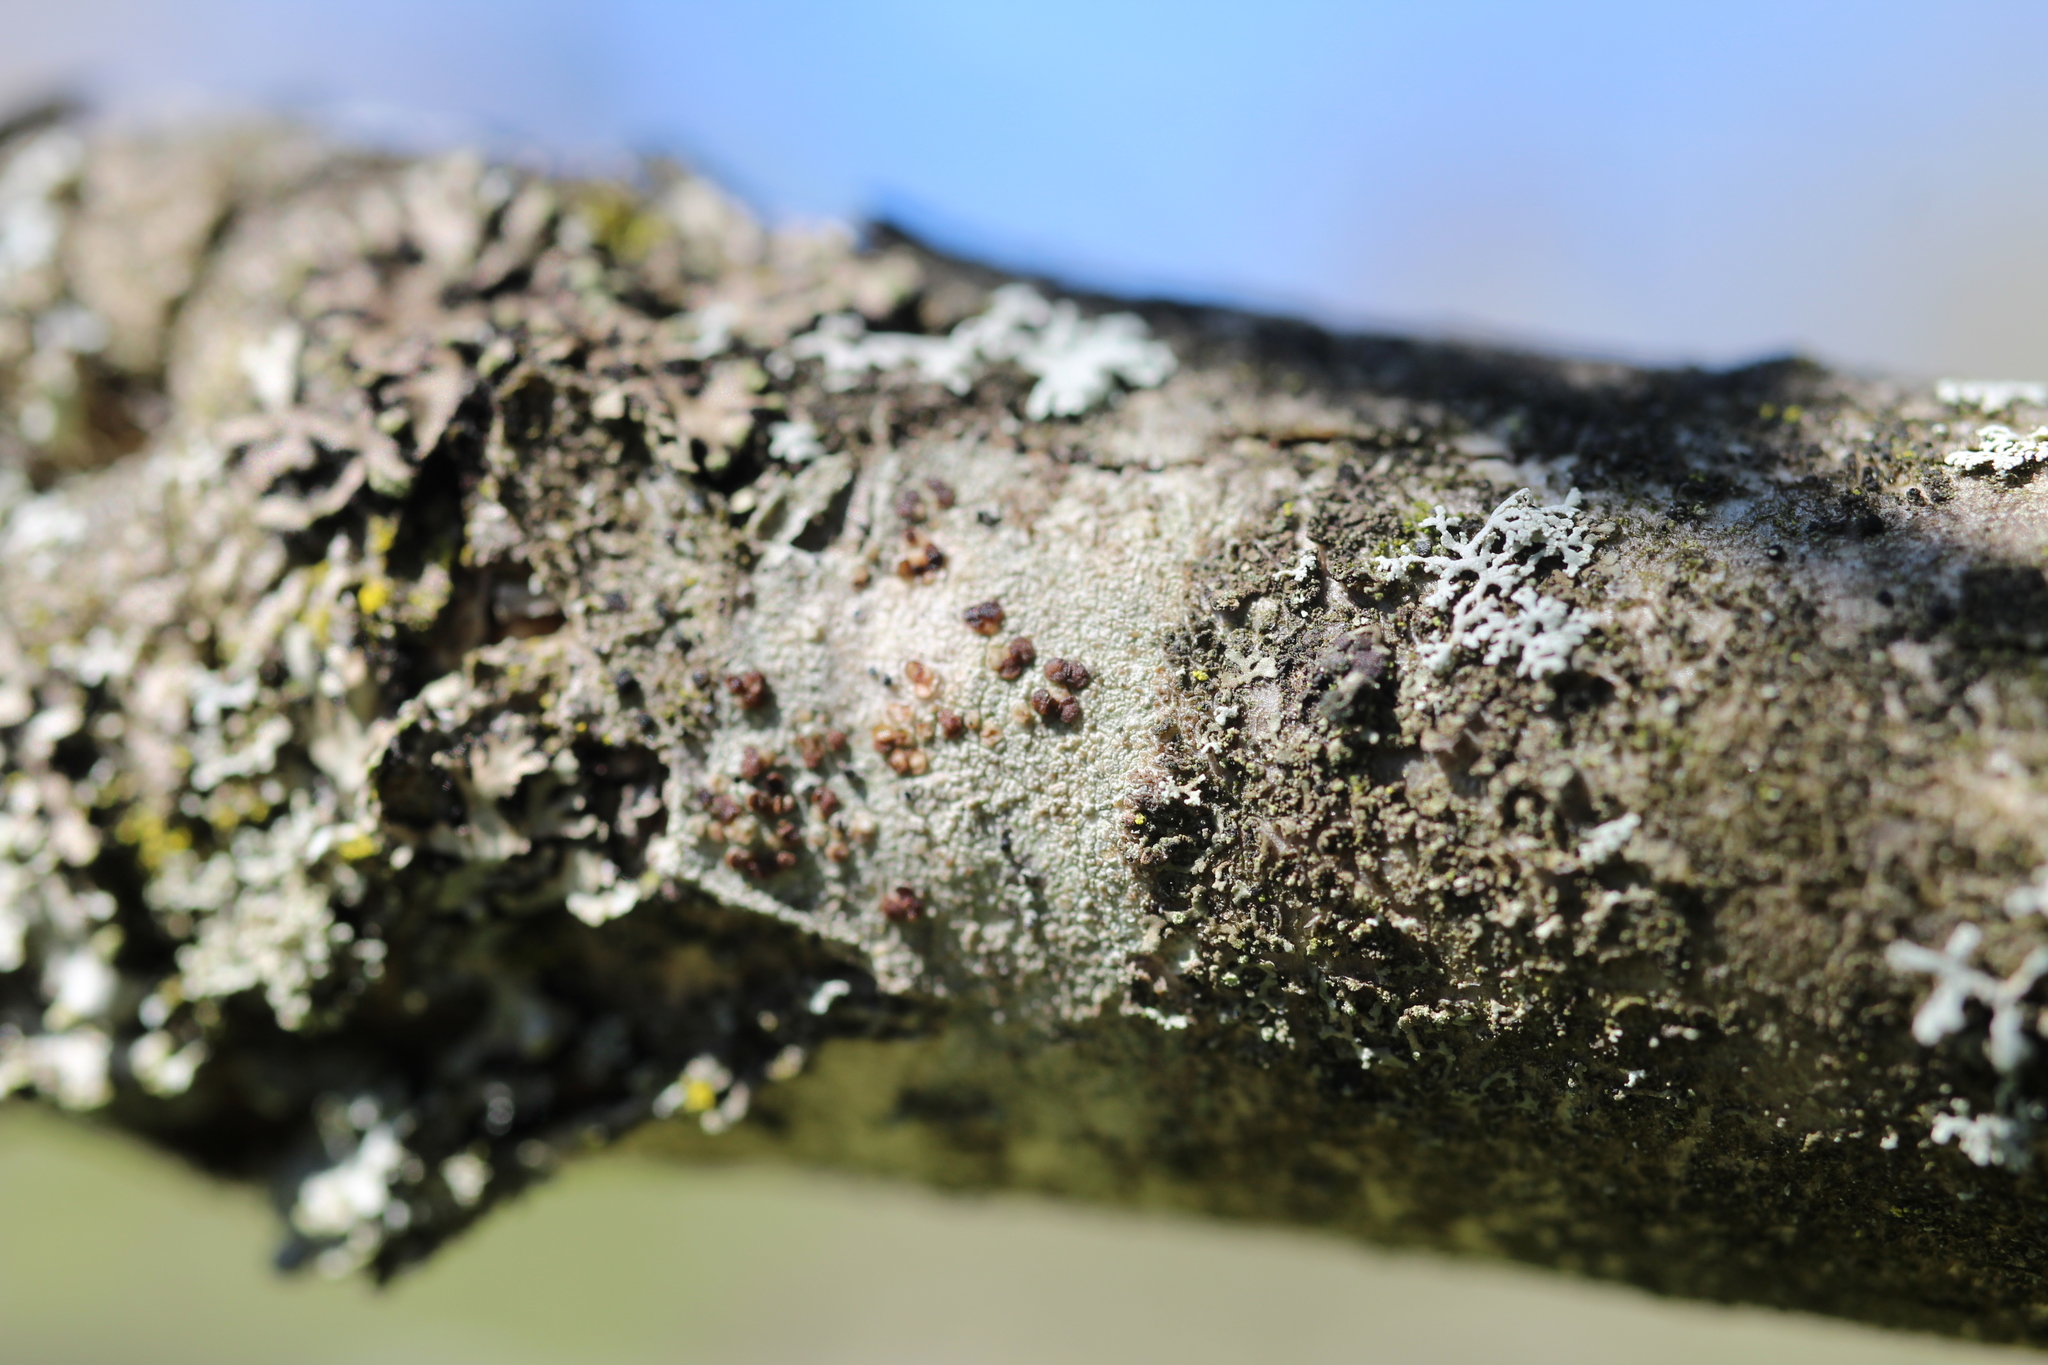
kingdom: Fungi
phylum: Ascomycota
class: Lecanoromycetes
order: Lecanorales
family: Lecanoraceae
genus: Traponora
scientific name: Traponora varians
